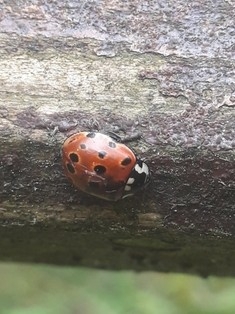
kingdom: Animalia
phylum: Arthropoda
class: Insecta
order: Coleoptera
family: Coccinellidae
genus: Anatis
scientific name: Anatis ocellata
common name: Eyed ladybird
